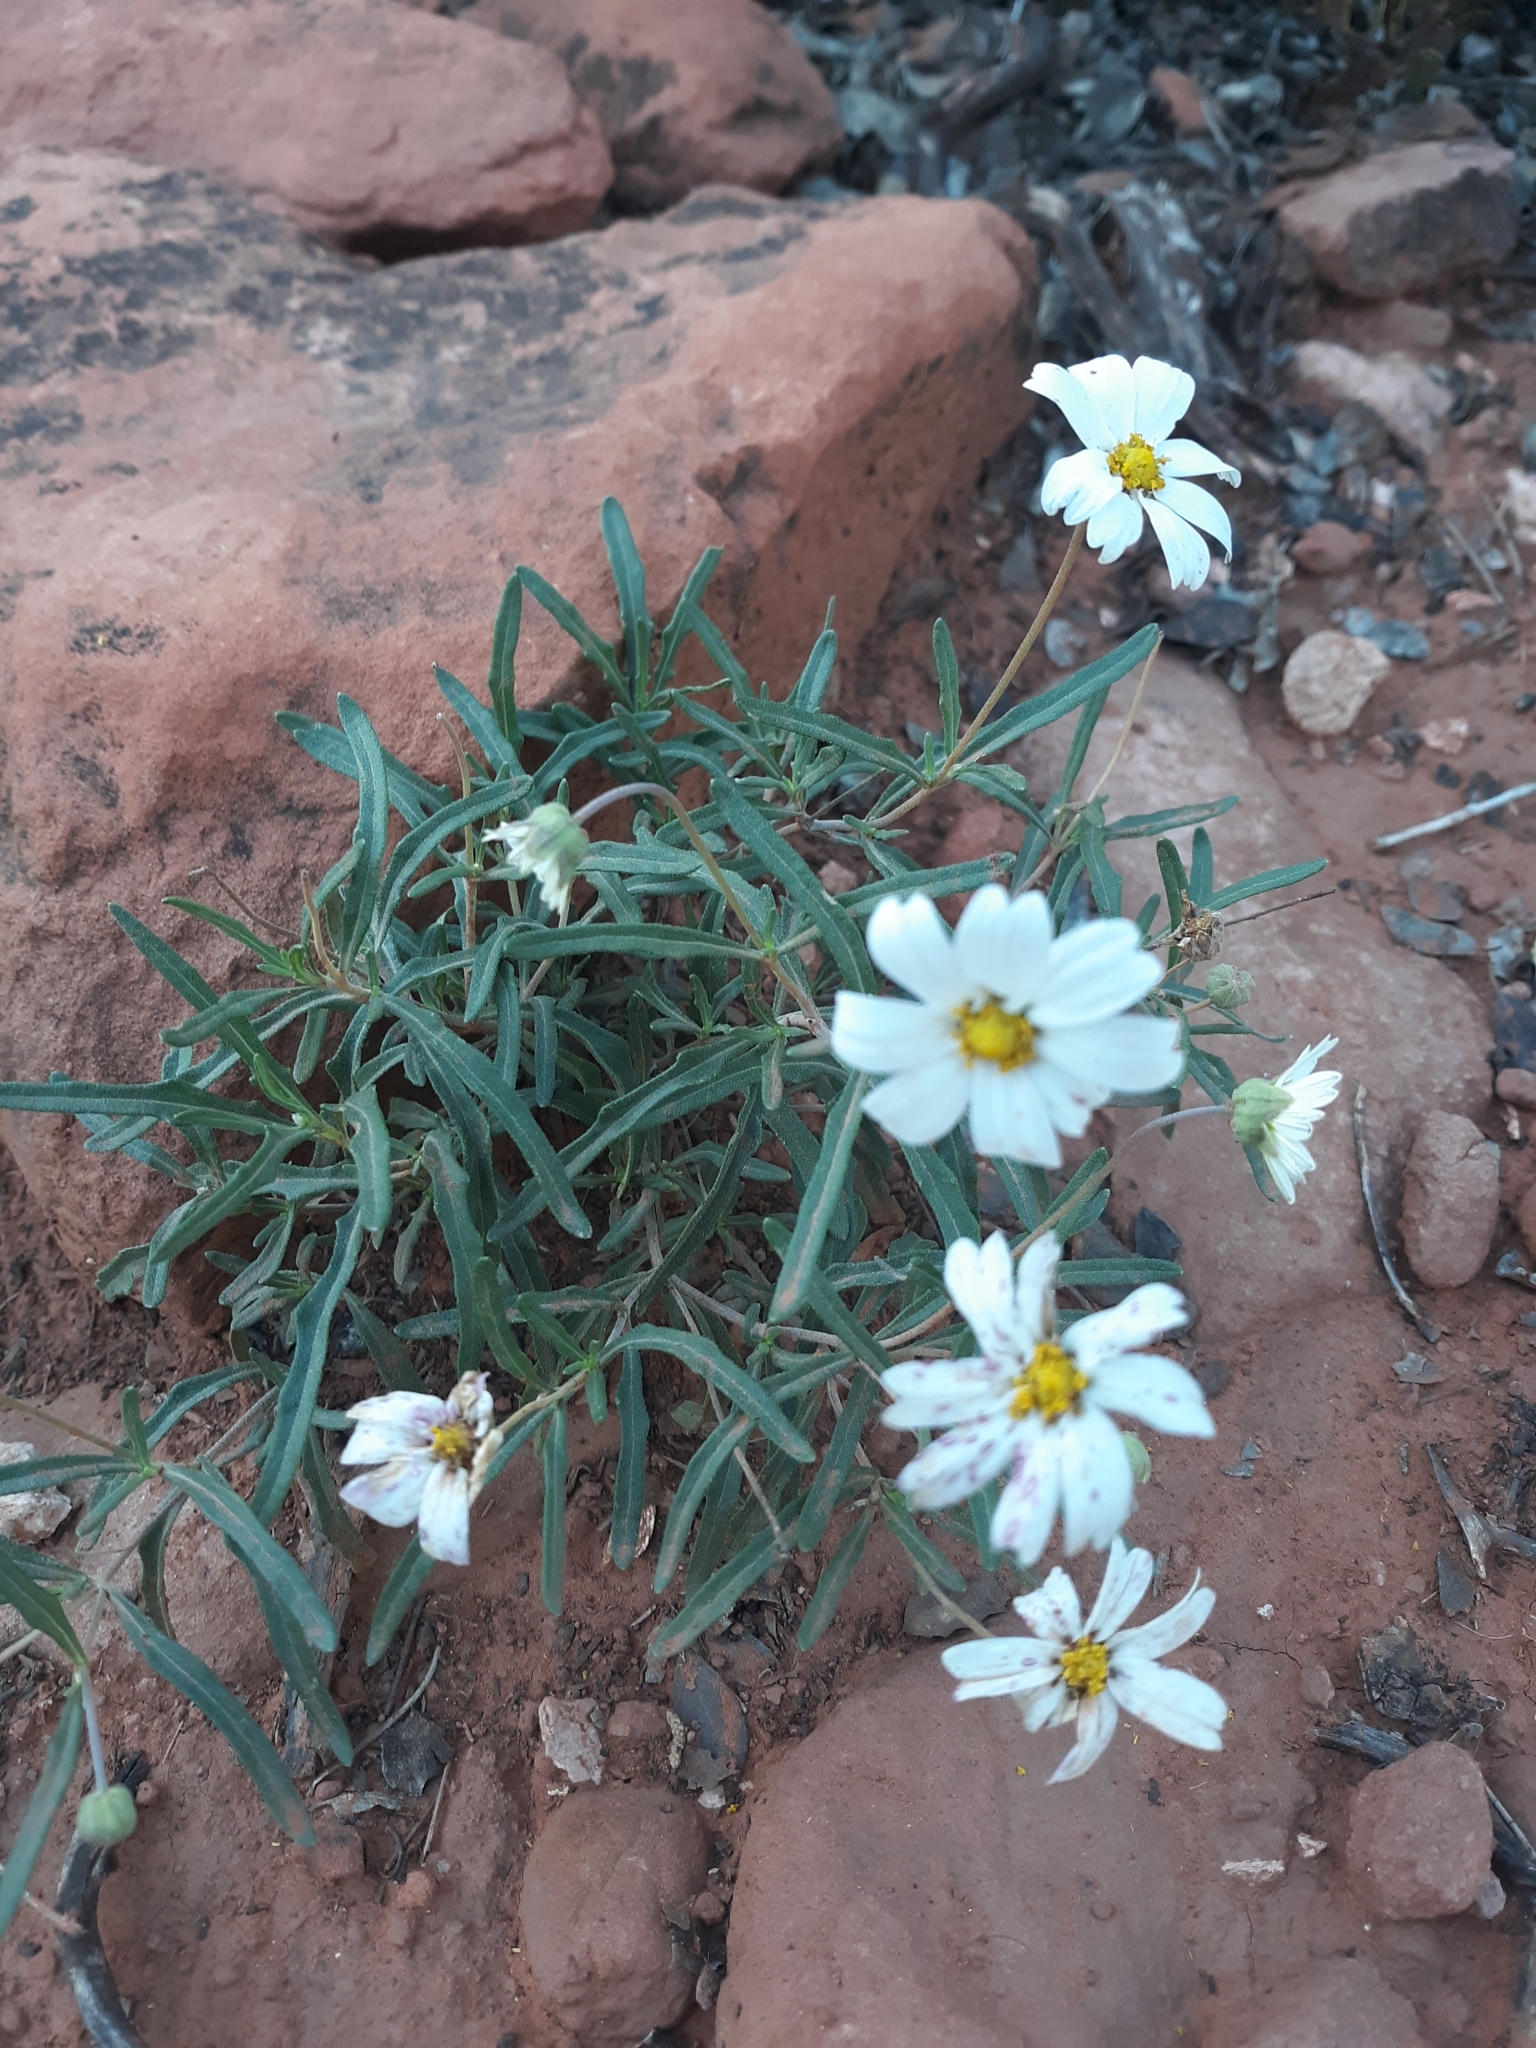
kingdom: Plantae
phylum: Tracheophyta
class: Magnoliopsida
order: Asterales
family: Asteraceae
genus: Melampodium
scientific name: Melampodium leucanthum
